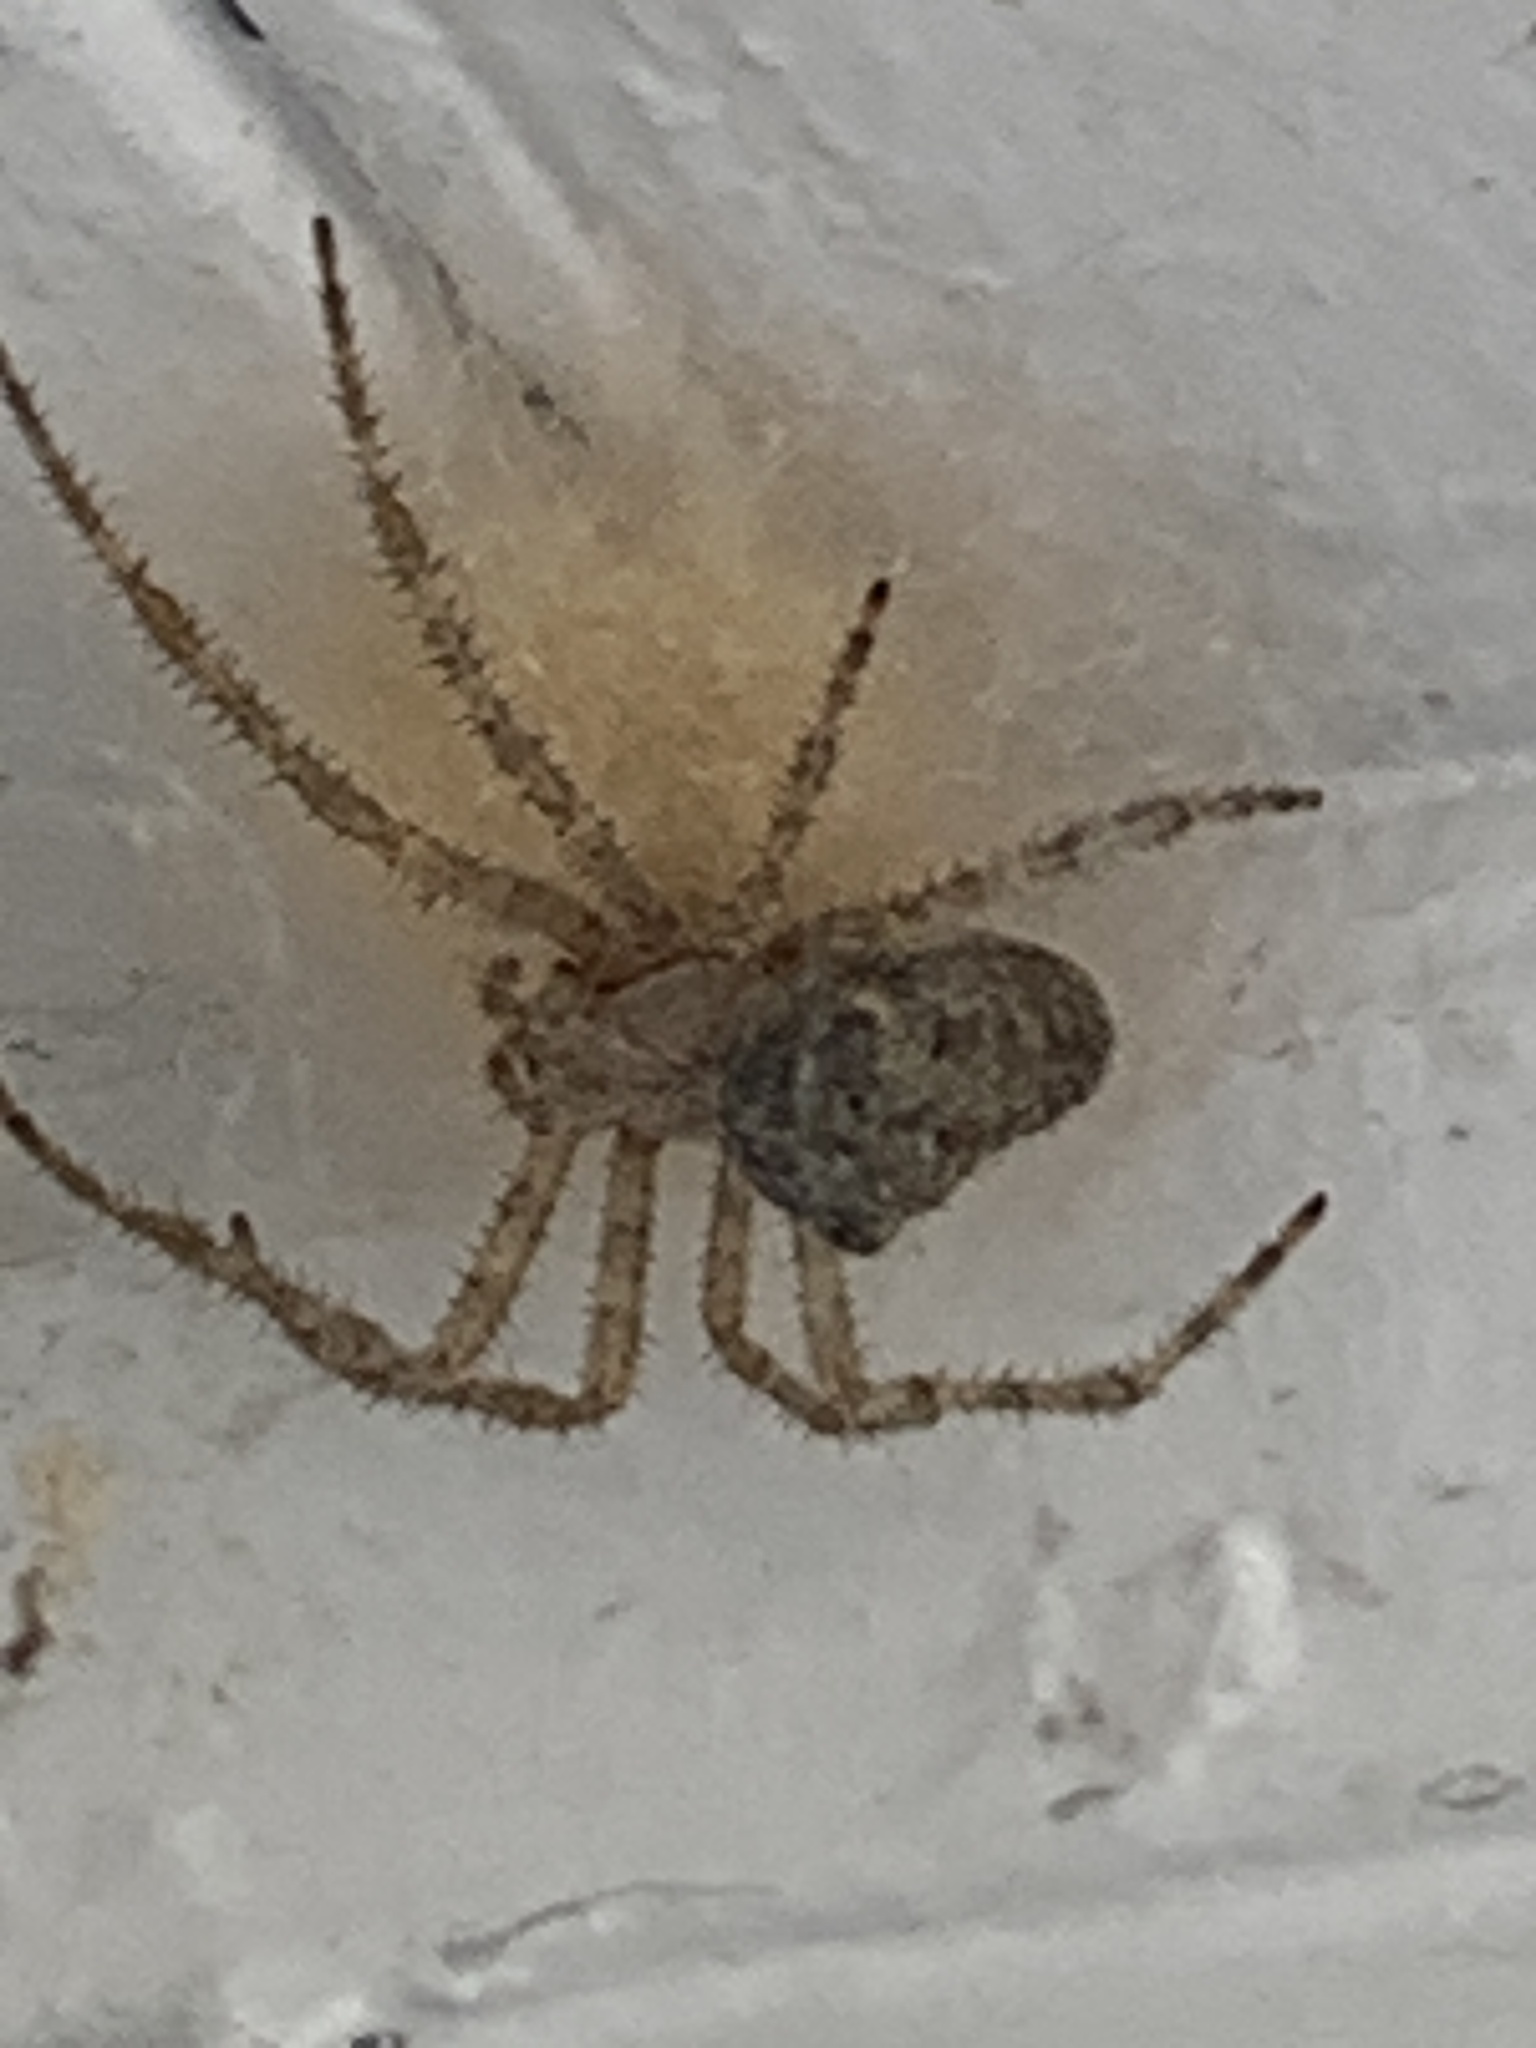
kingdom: Animalia
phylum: Arthropoda
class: Arachnida
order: Araneae
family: Araneidae
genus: Araneus
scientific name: Araneus cavaticus
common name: Barn orbweaver
